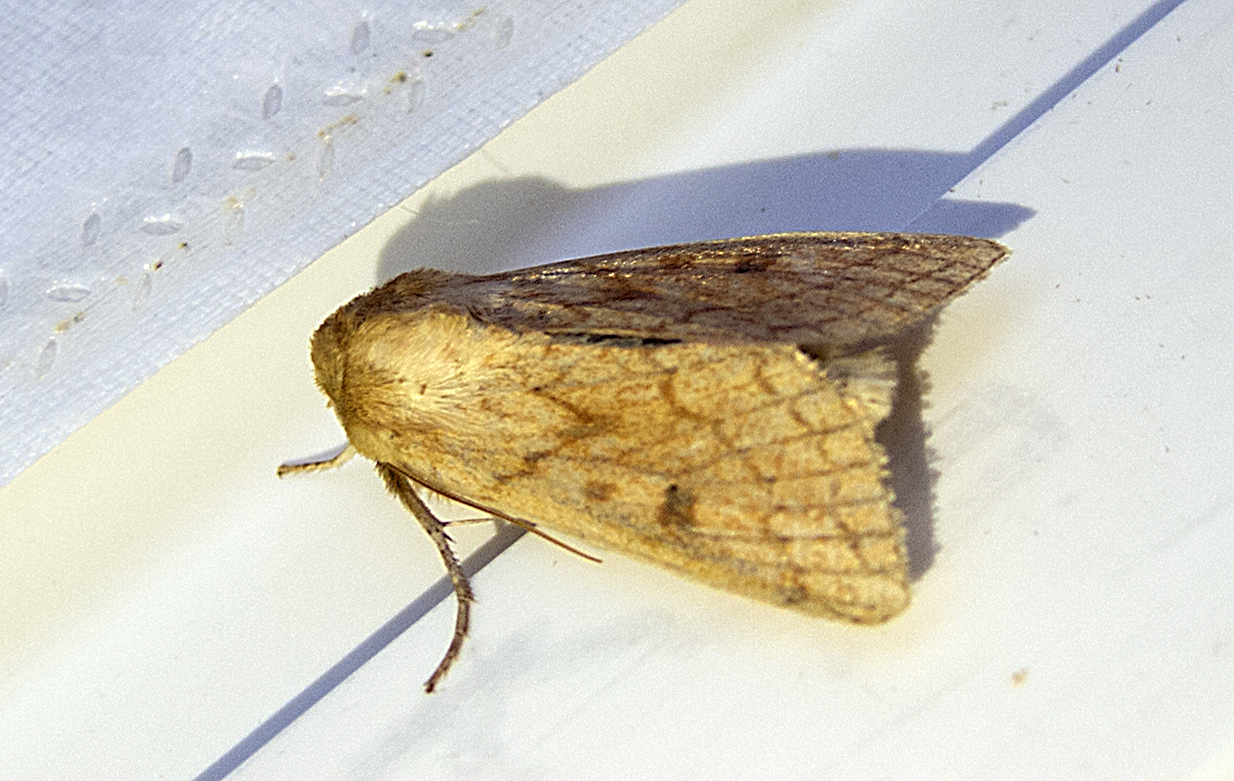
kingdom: Animalia
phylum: Arthropoda
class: Insecta
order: Lepidoptera
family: Noctuidae
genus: Mythimna
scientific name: Mythimna vitellina
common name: Delicate
